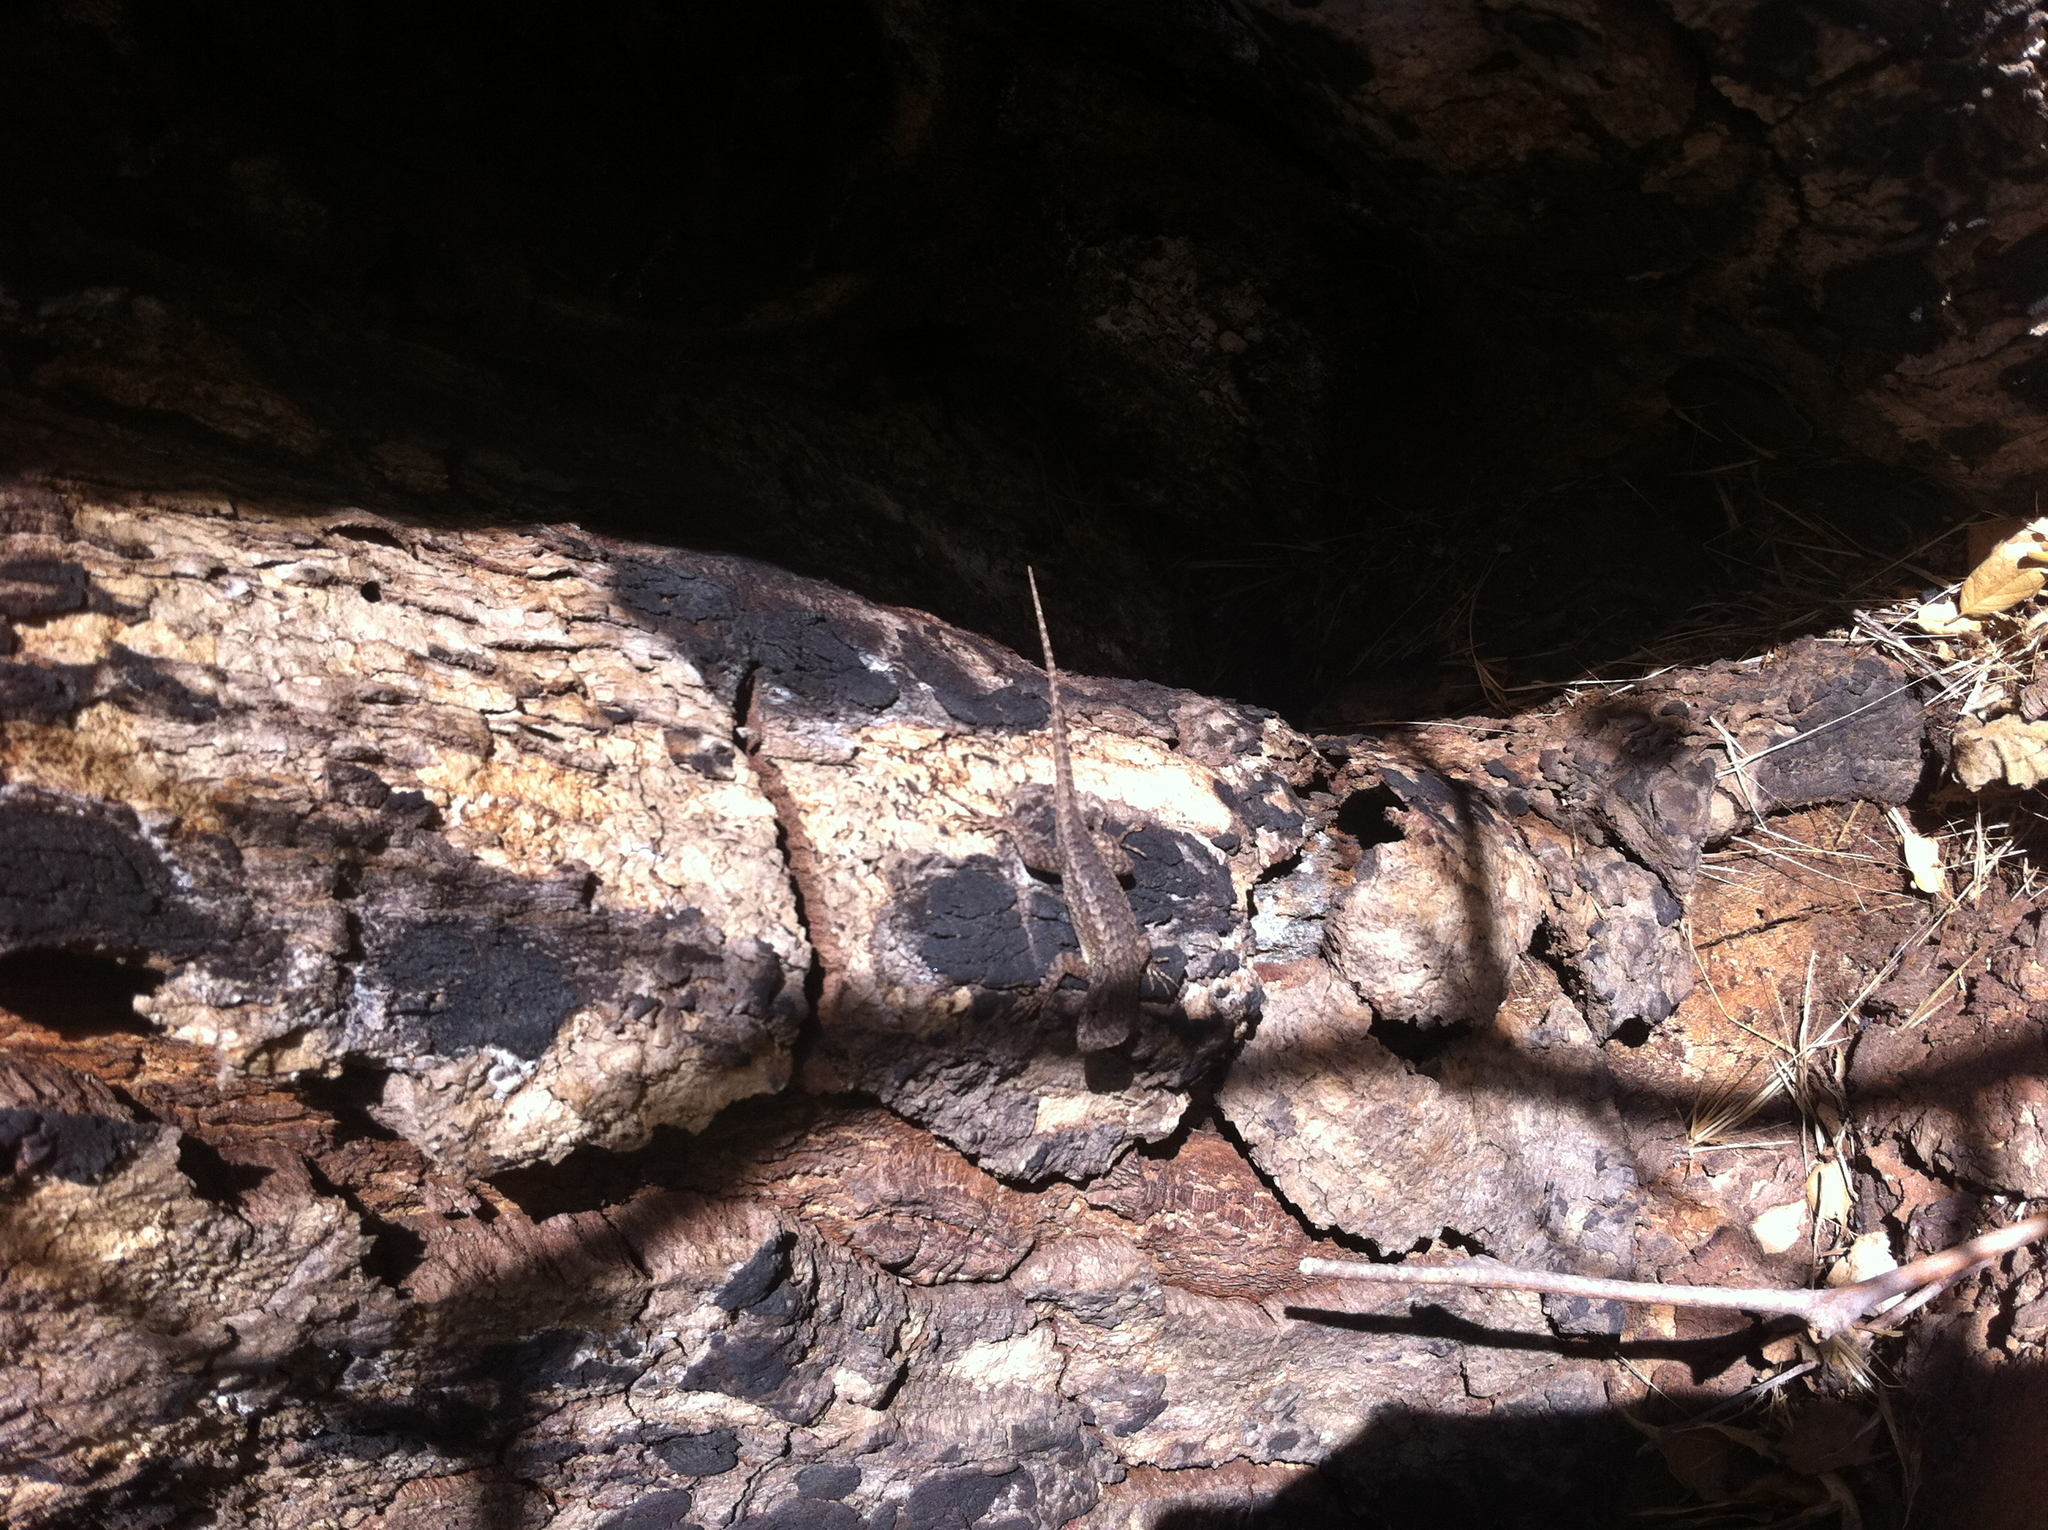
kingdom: Animalia
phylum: Chordata
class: Squamata
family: Phrynosomatidae
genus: Sceloporus
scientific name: Sceloporus occidentalis
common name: Western fence lizard
